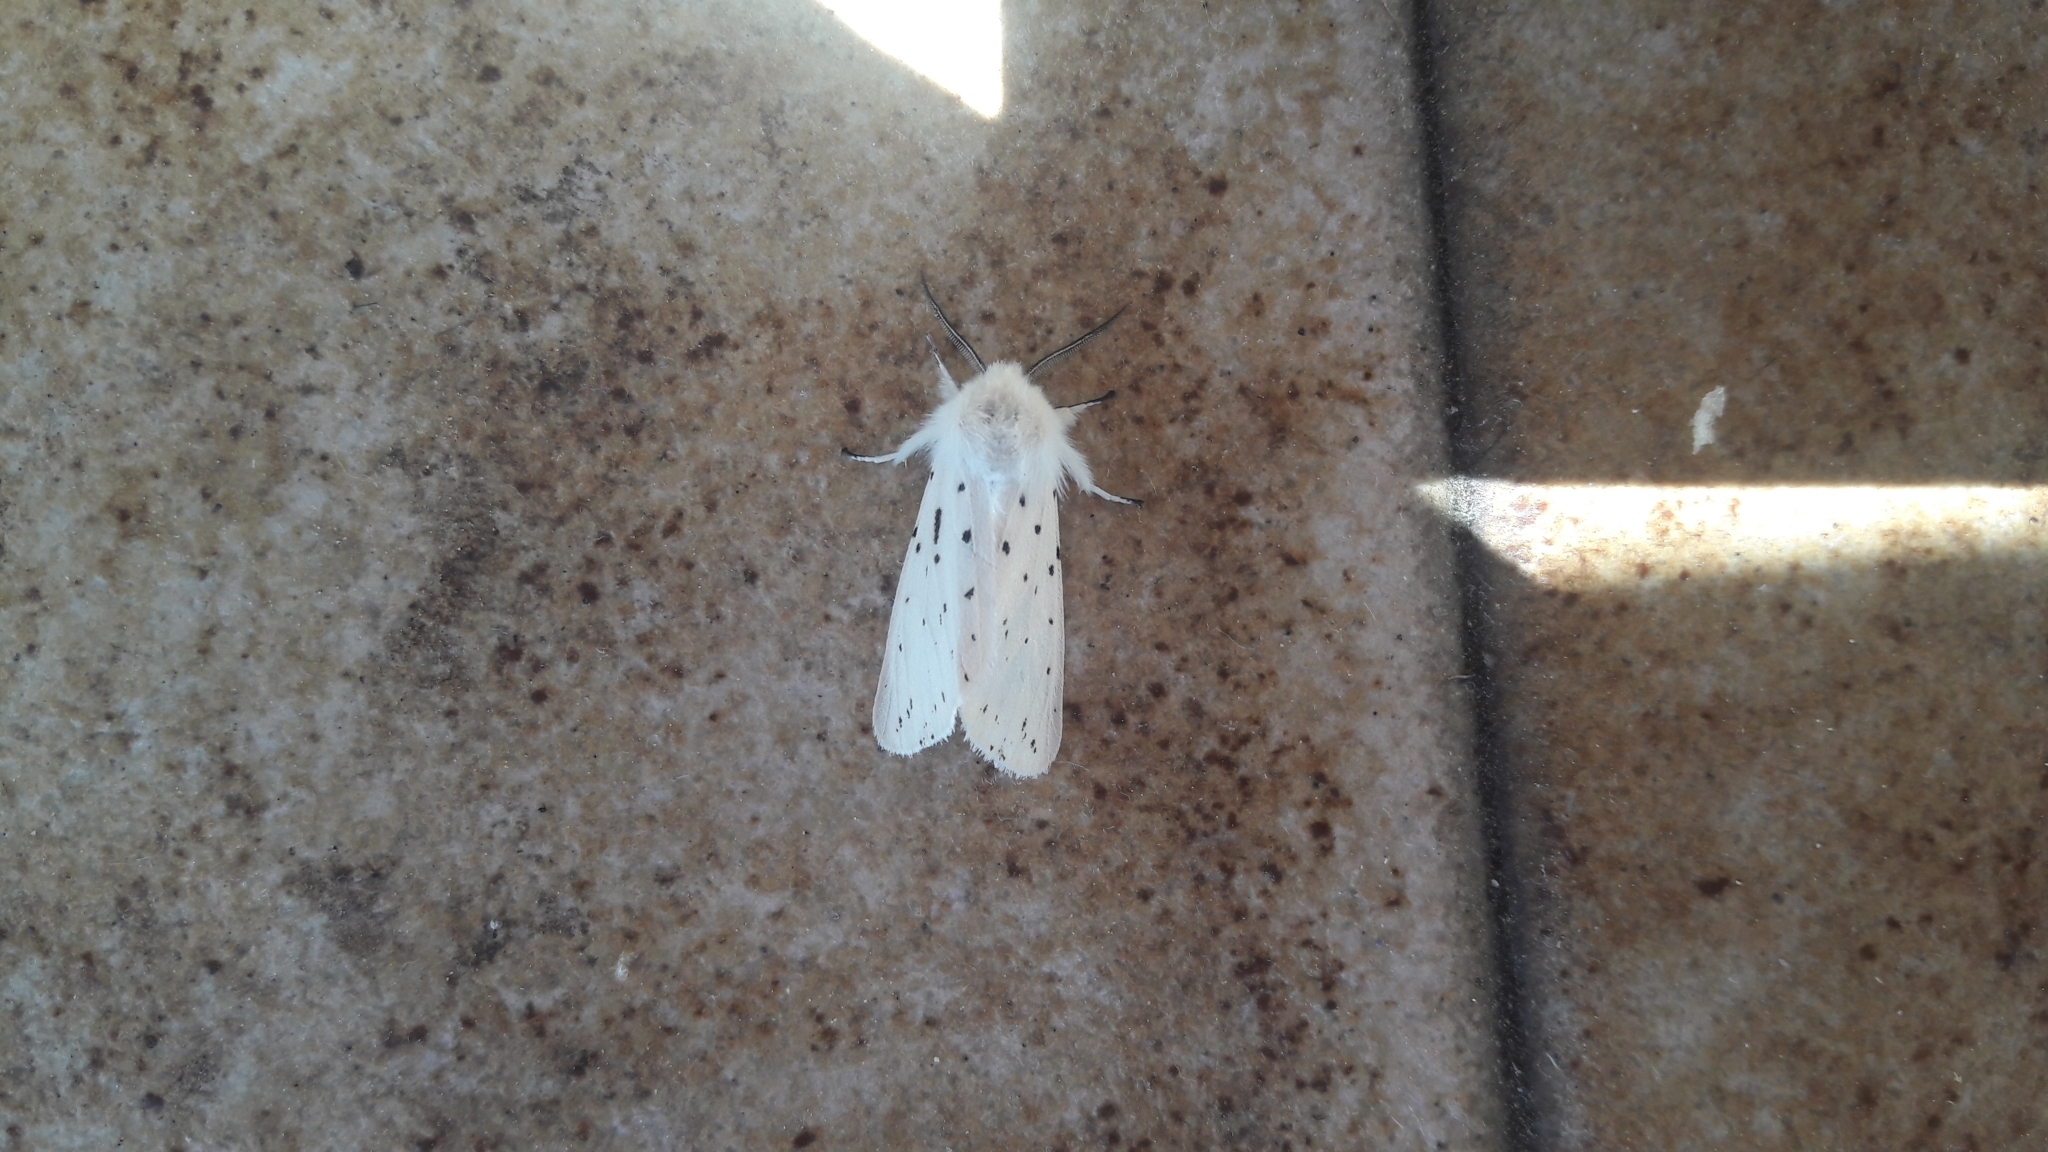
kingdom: Animalia
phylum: Arthropoda
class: Insecta
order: Lepidoptera
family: Erebidae
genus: Spilosoma
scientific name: Spilosoma lubricipeda
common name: White ermine
